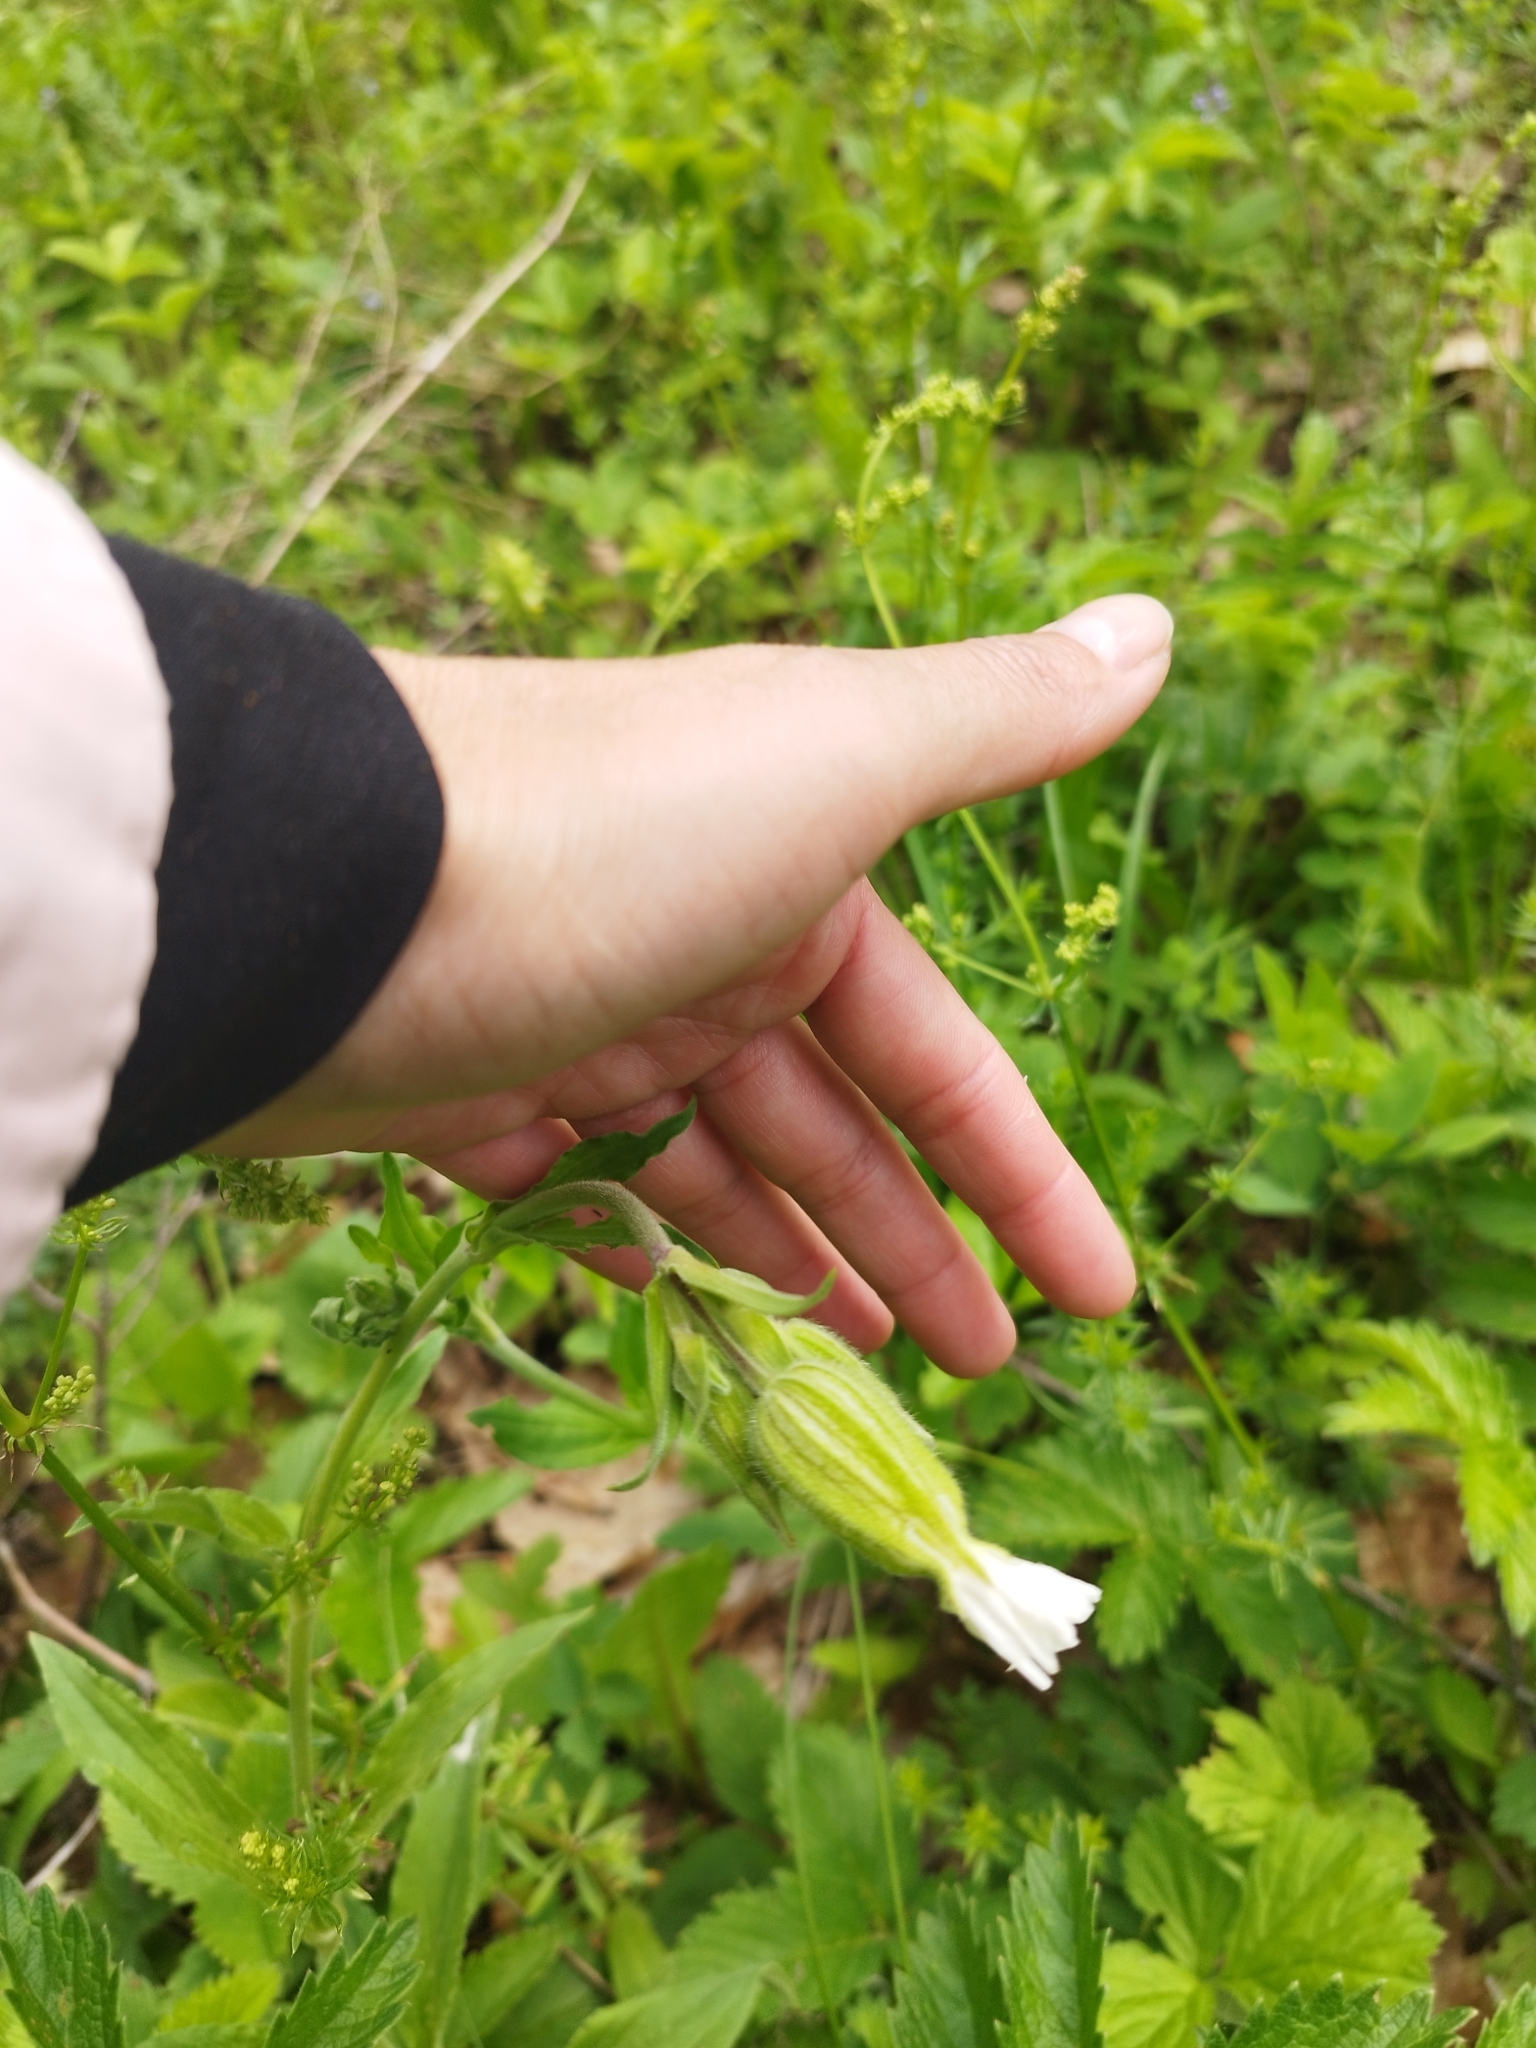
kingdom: Plantae
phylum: Tracheophyta
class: Magnoliopsida
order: Caryophyllales
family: Caryophyllaceae
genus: Silene
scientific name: Silene latifolia
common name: White campion
